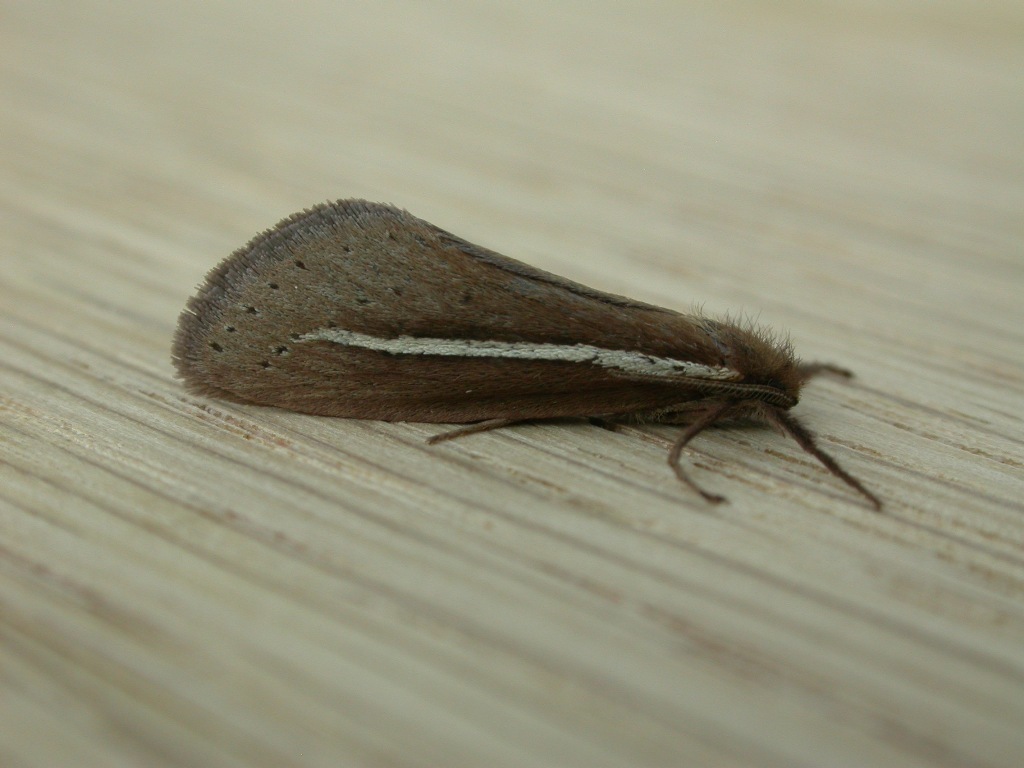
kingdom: Animalia
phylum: Arthropoda
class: Insecta
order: Lepidoptera
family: Hepialidae
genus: Fraus
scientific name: Fraus pteromela
